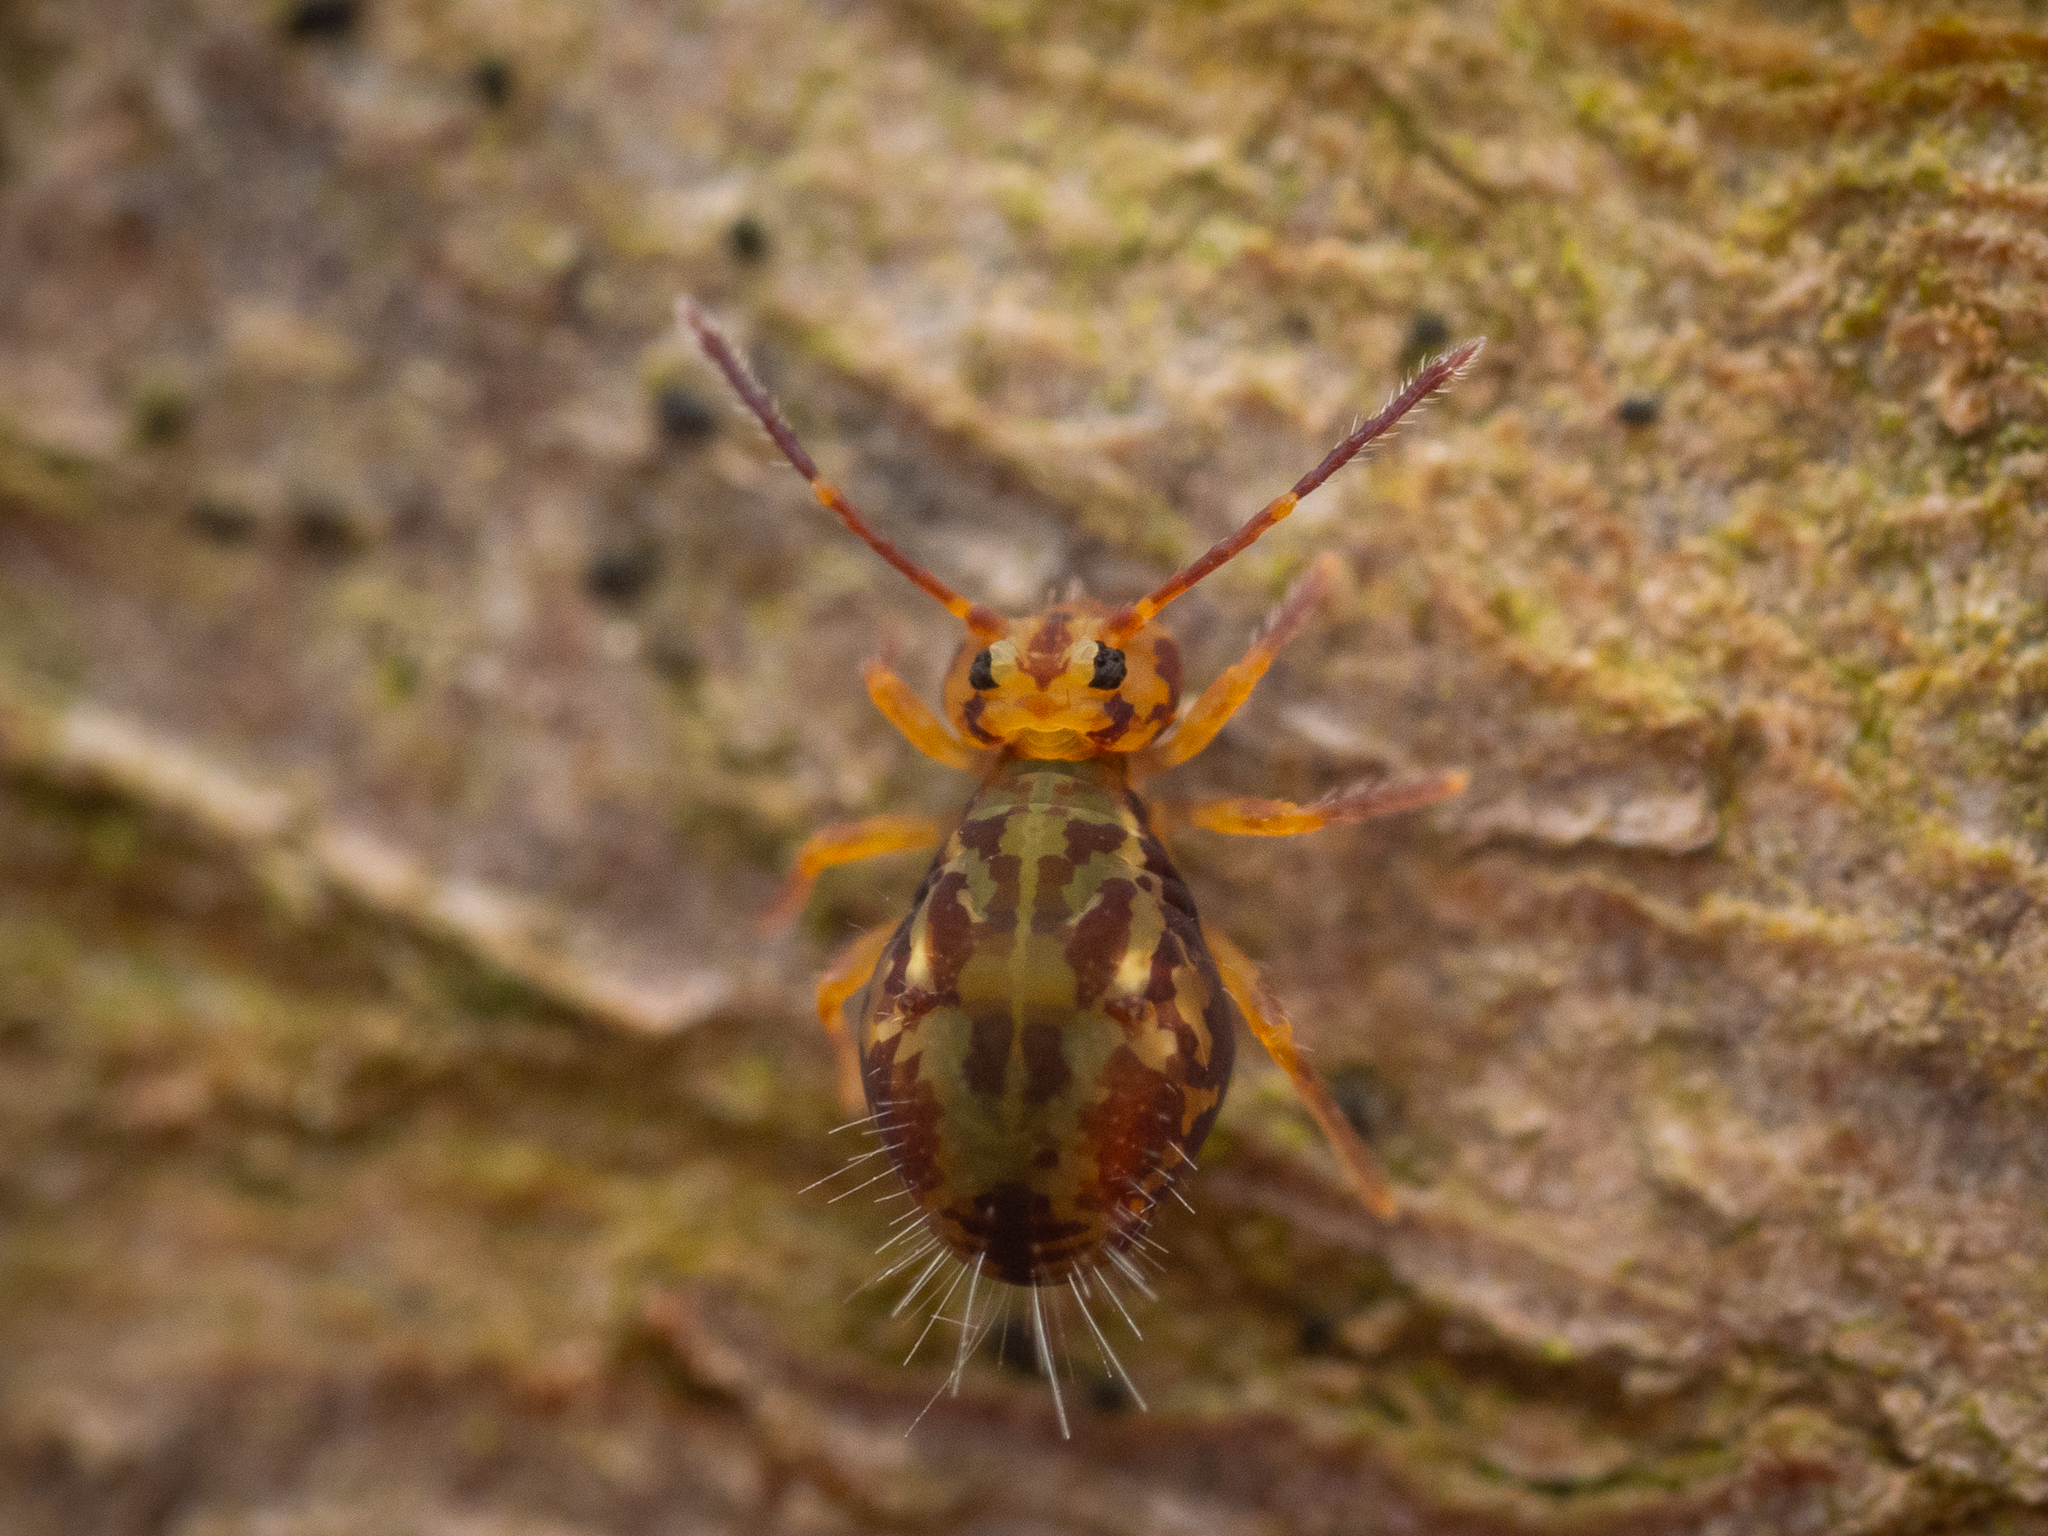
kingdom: Animalia
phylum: Arthropoda
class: Collembola
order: Symphypleona
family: Dicyrtomidae
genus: Dicyrtomina
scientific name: Dicyrtomina saundersi
